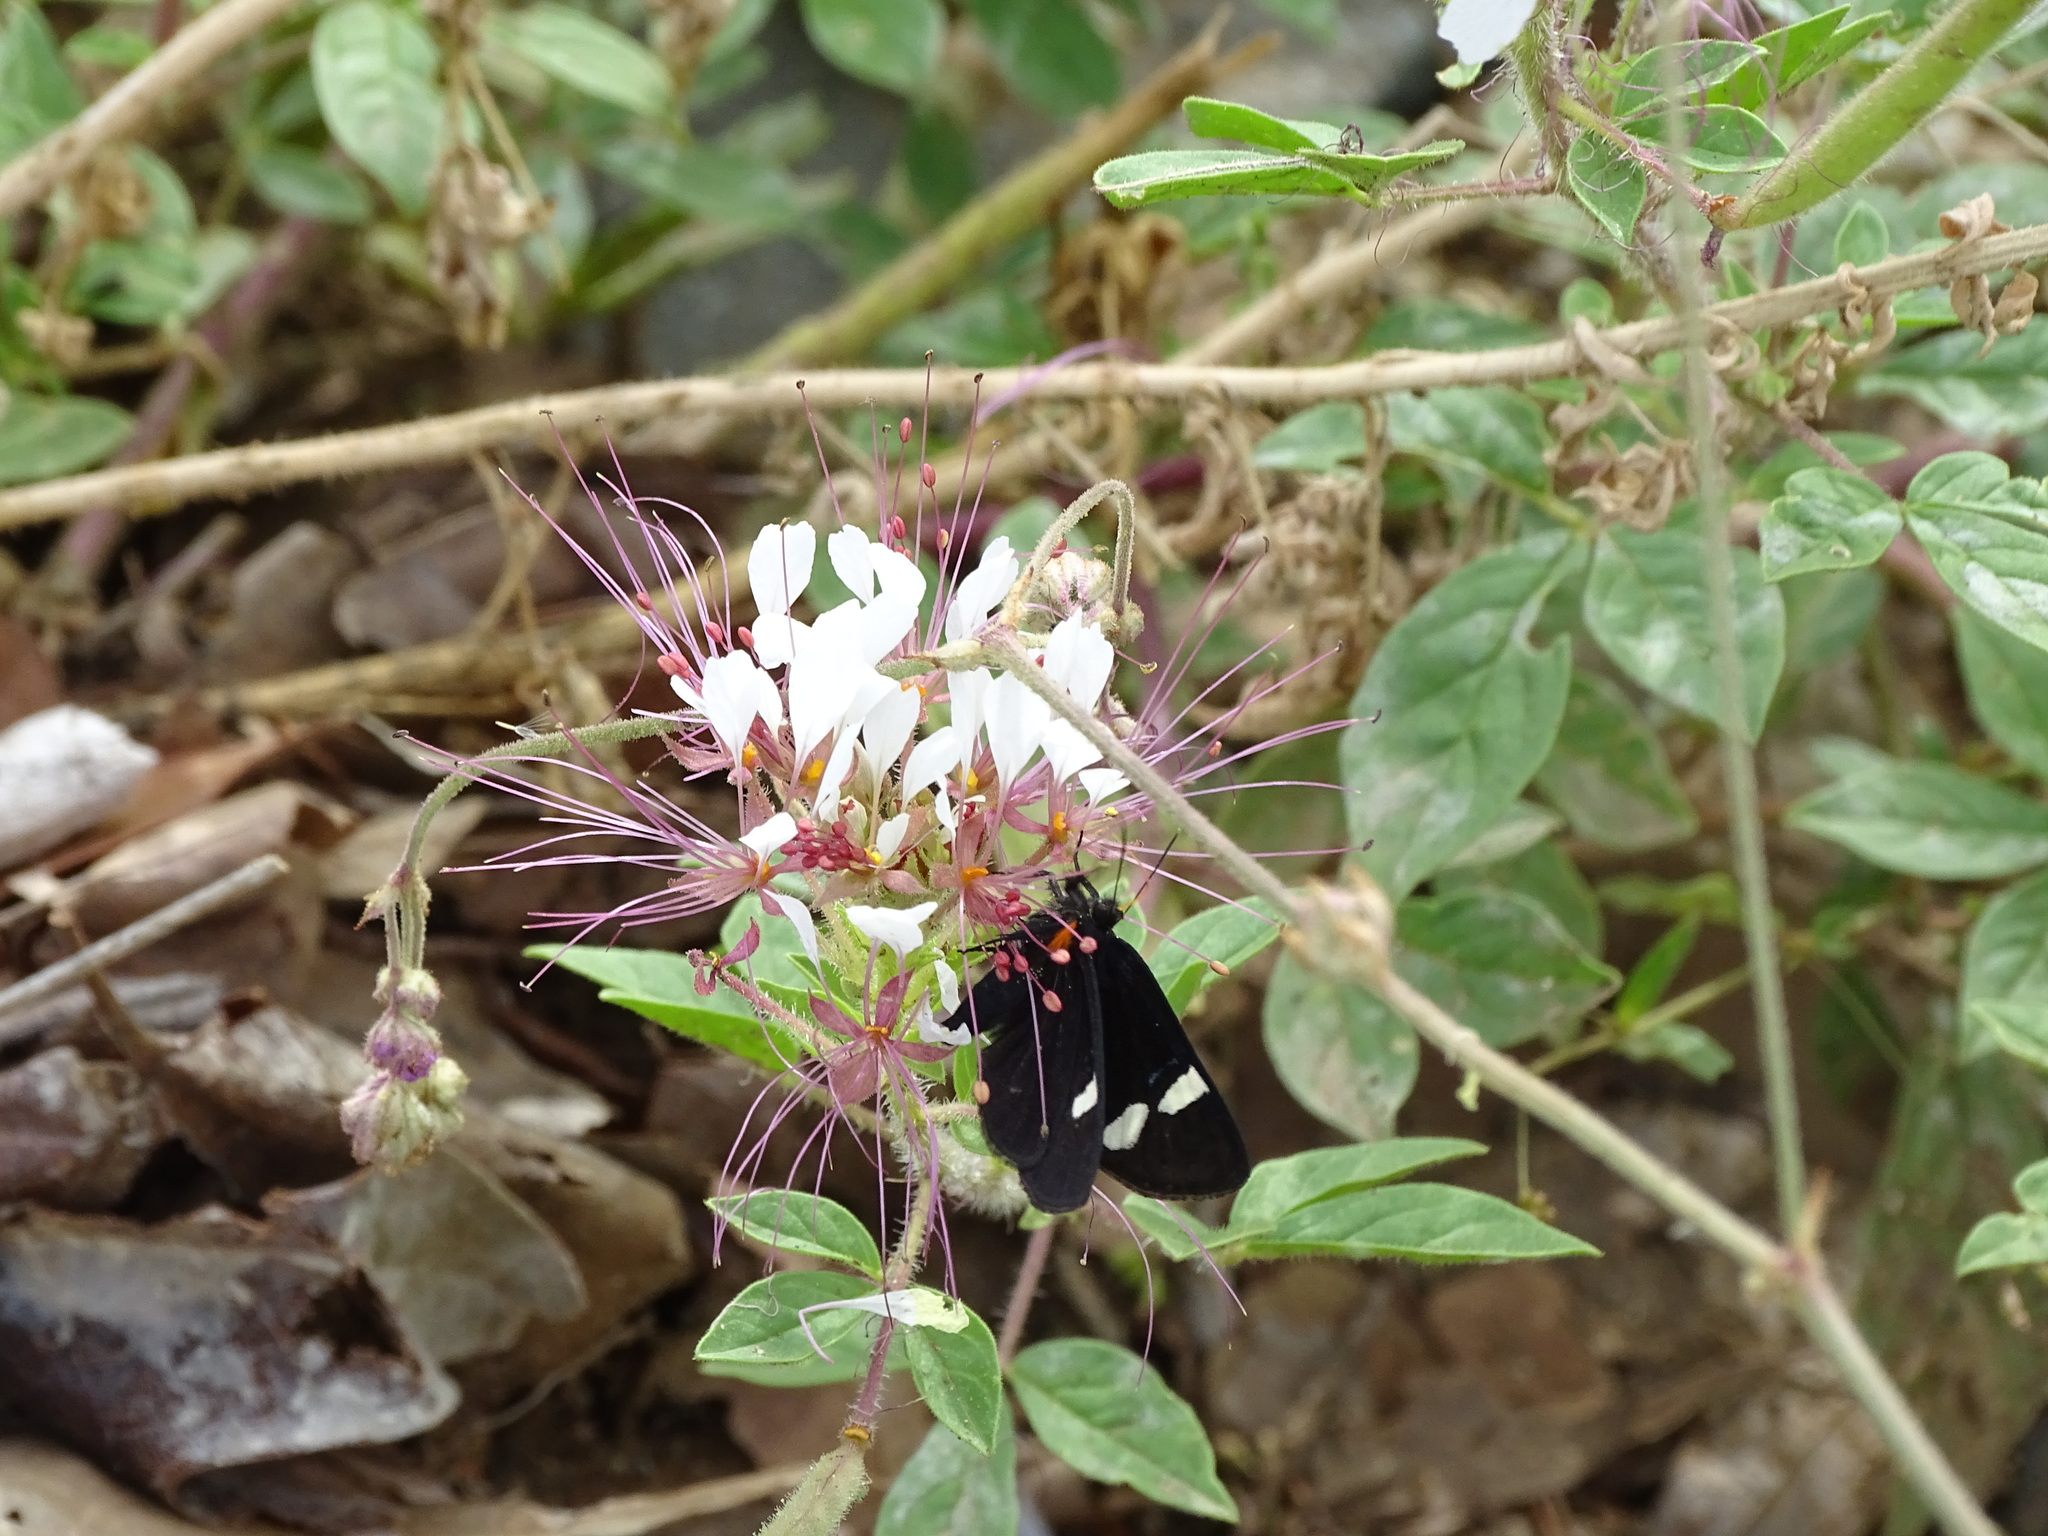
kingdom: Animalia
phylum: Arthropoda
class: Insecta
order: Lepidoptera
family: Noctuidae
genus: Alypiodes
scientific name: Alypiodes geronimo
